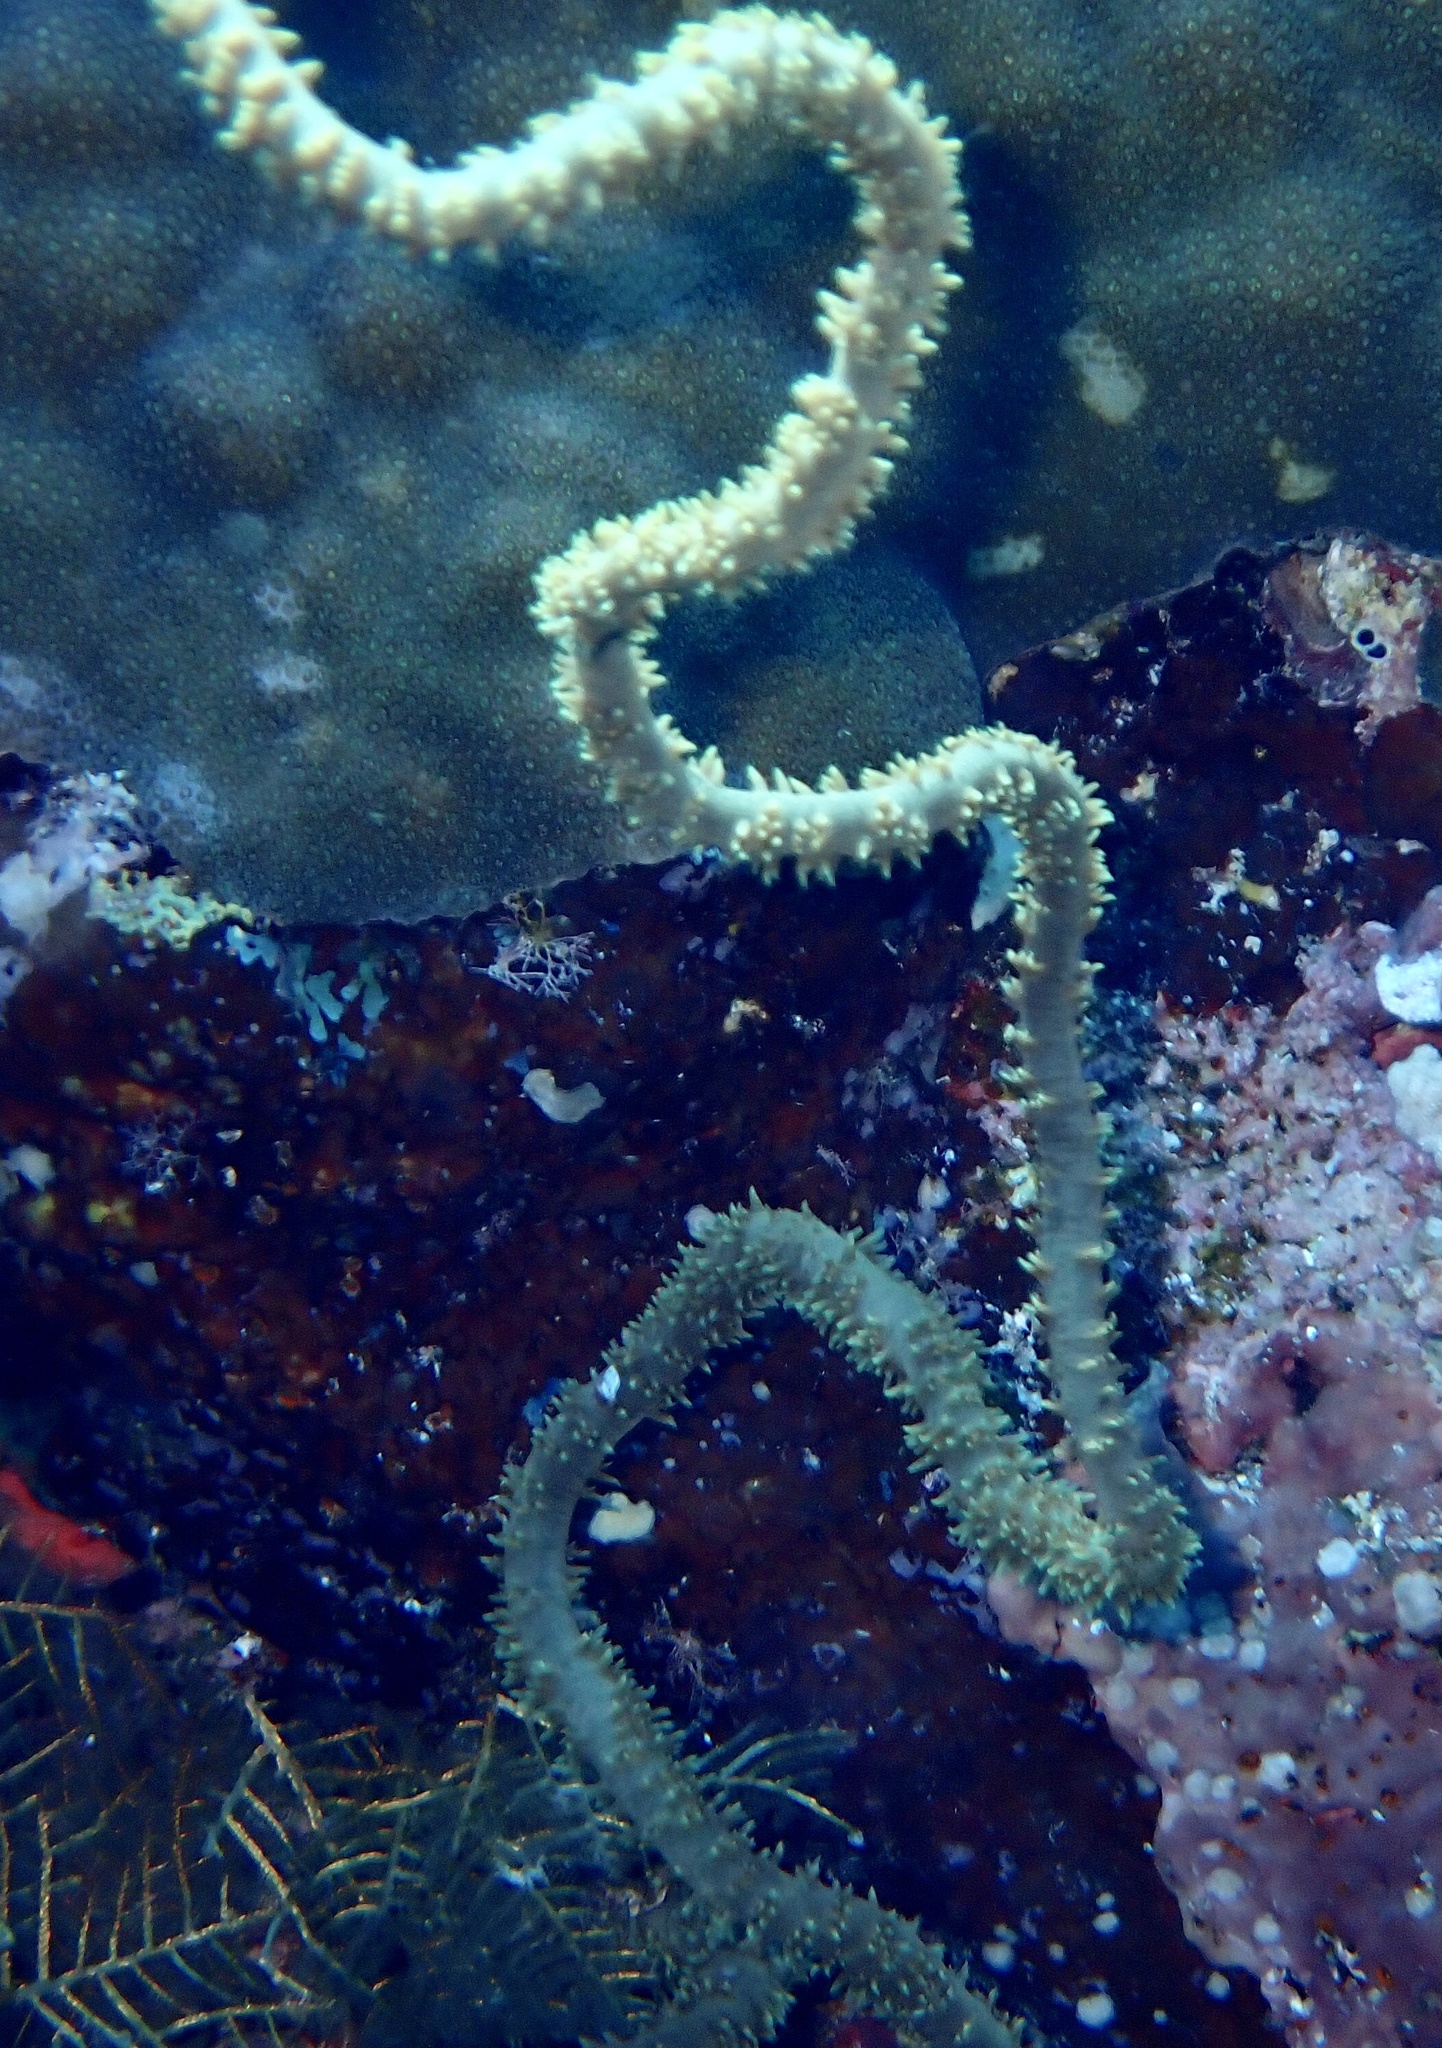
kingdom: Animalia
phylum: Cnidaria
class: Anthozoa
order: Antipatharia
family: Antipathidae
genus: Cirrhipathes
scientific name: Cirrhipathes
